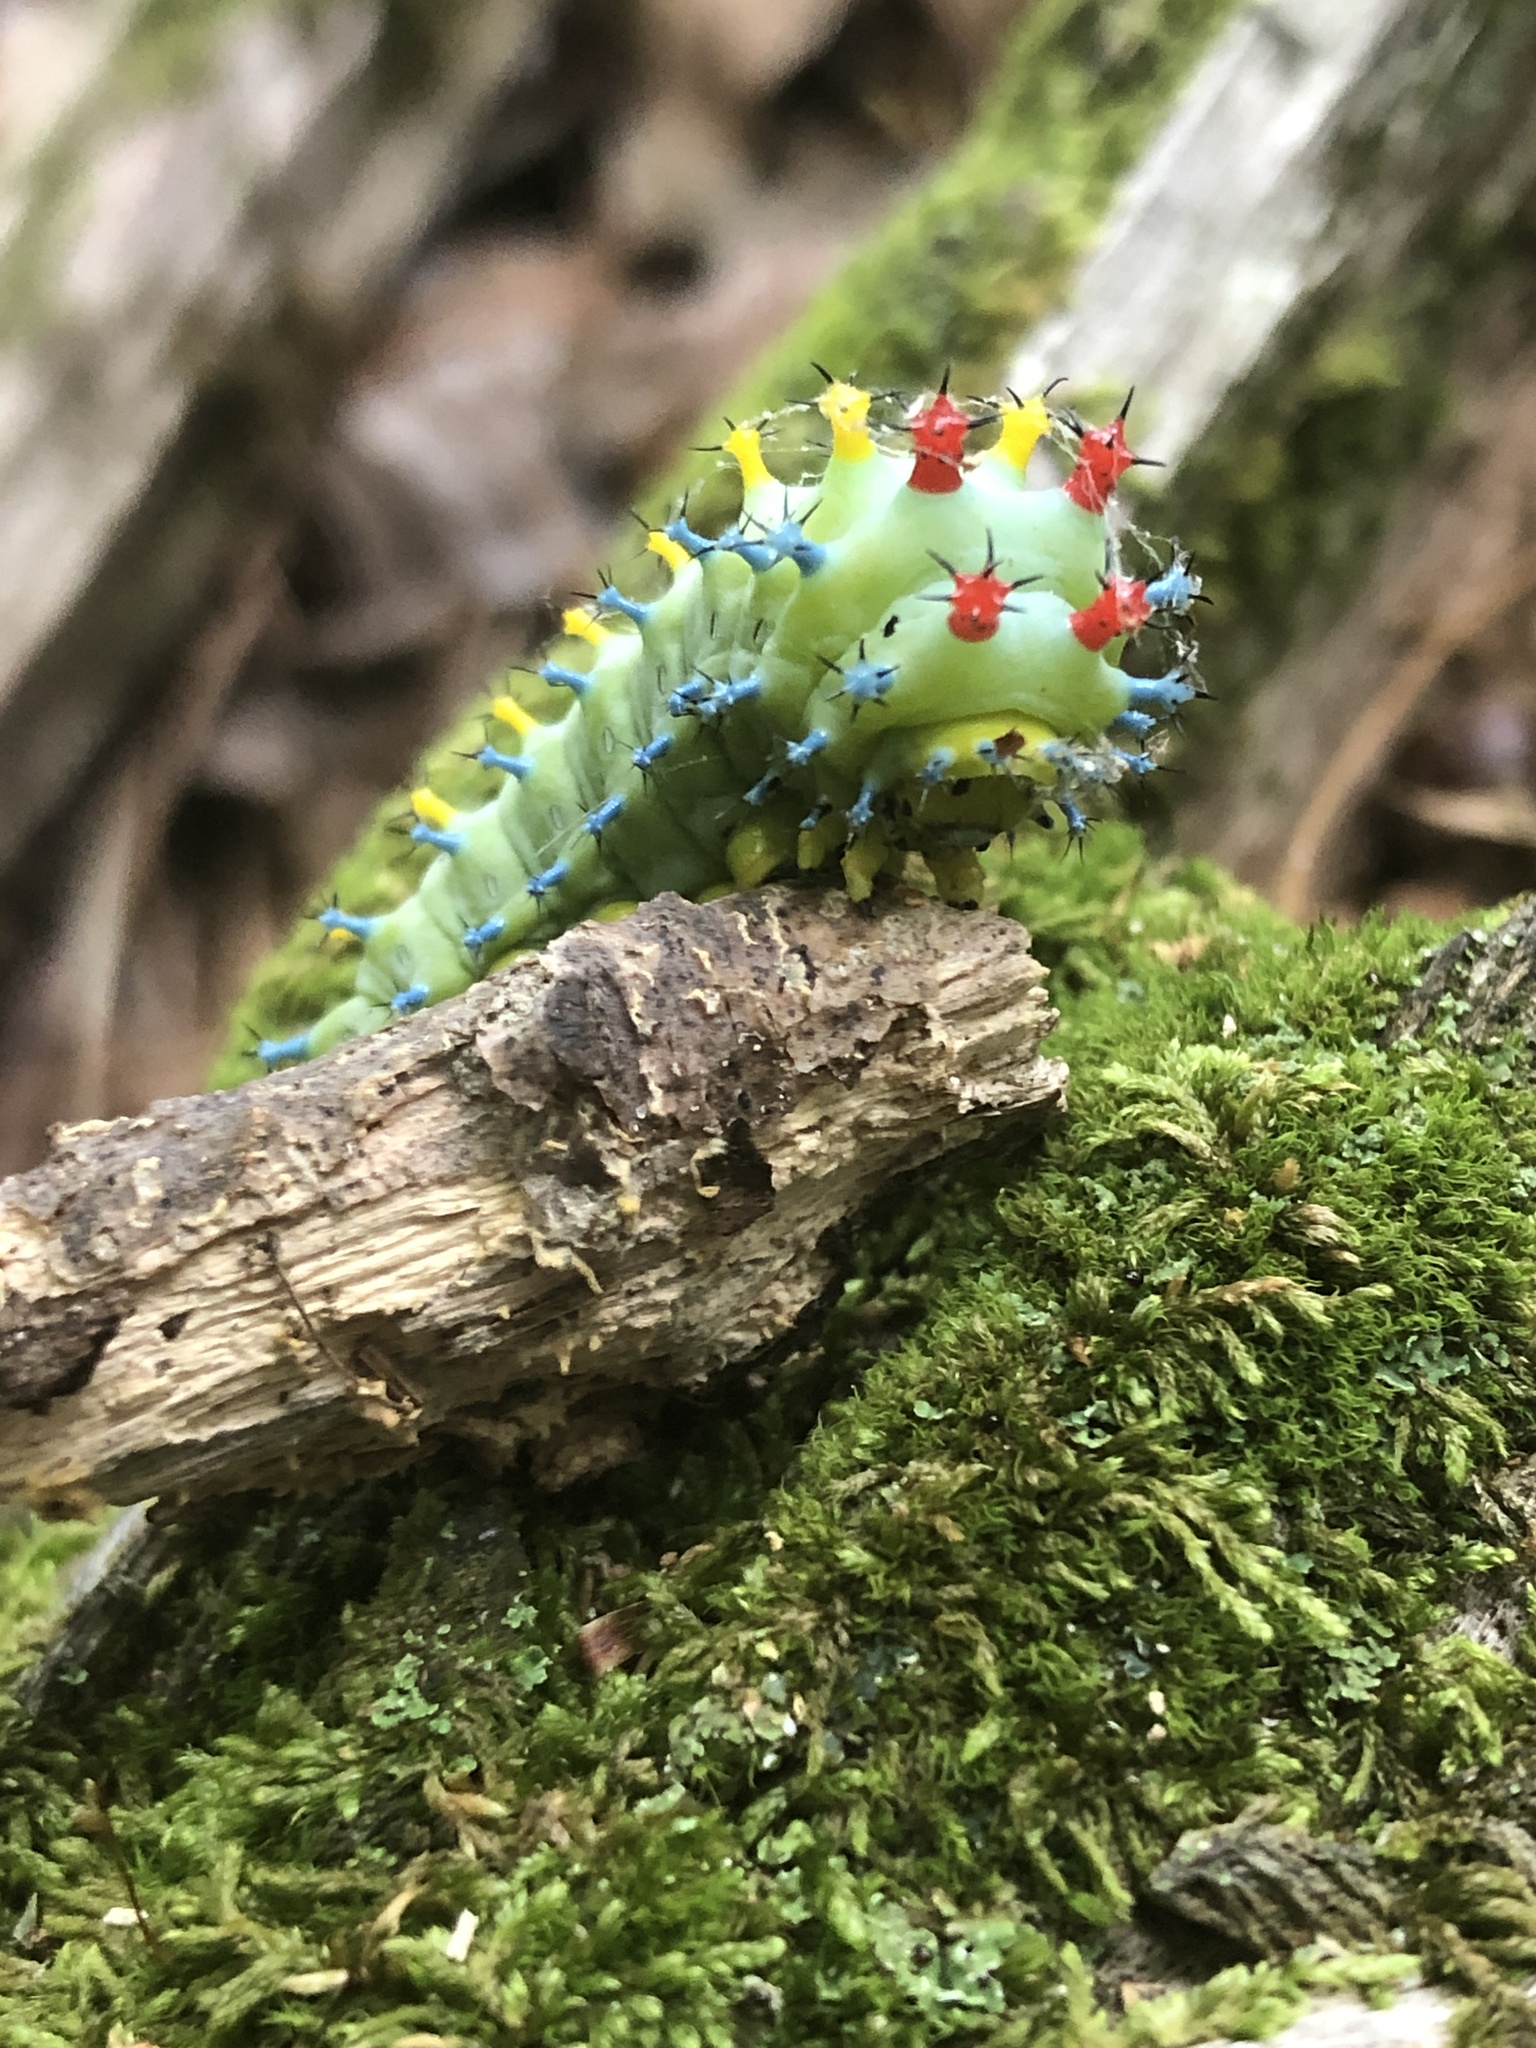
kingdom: Animalia
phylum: Arthropoda
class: Insecta
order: Lepidoptera
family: Saturniidae
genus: Hyalophora
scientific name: Hyalophora cecropia
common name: Cecropia silkmoth
